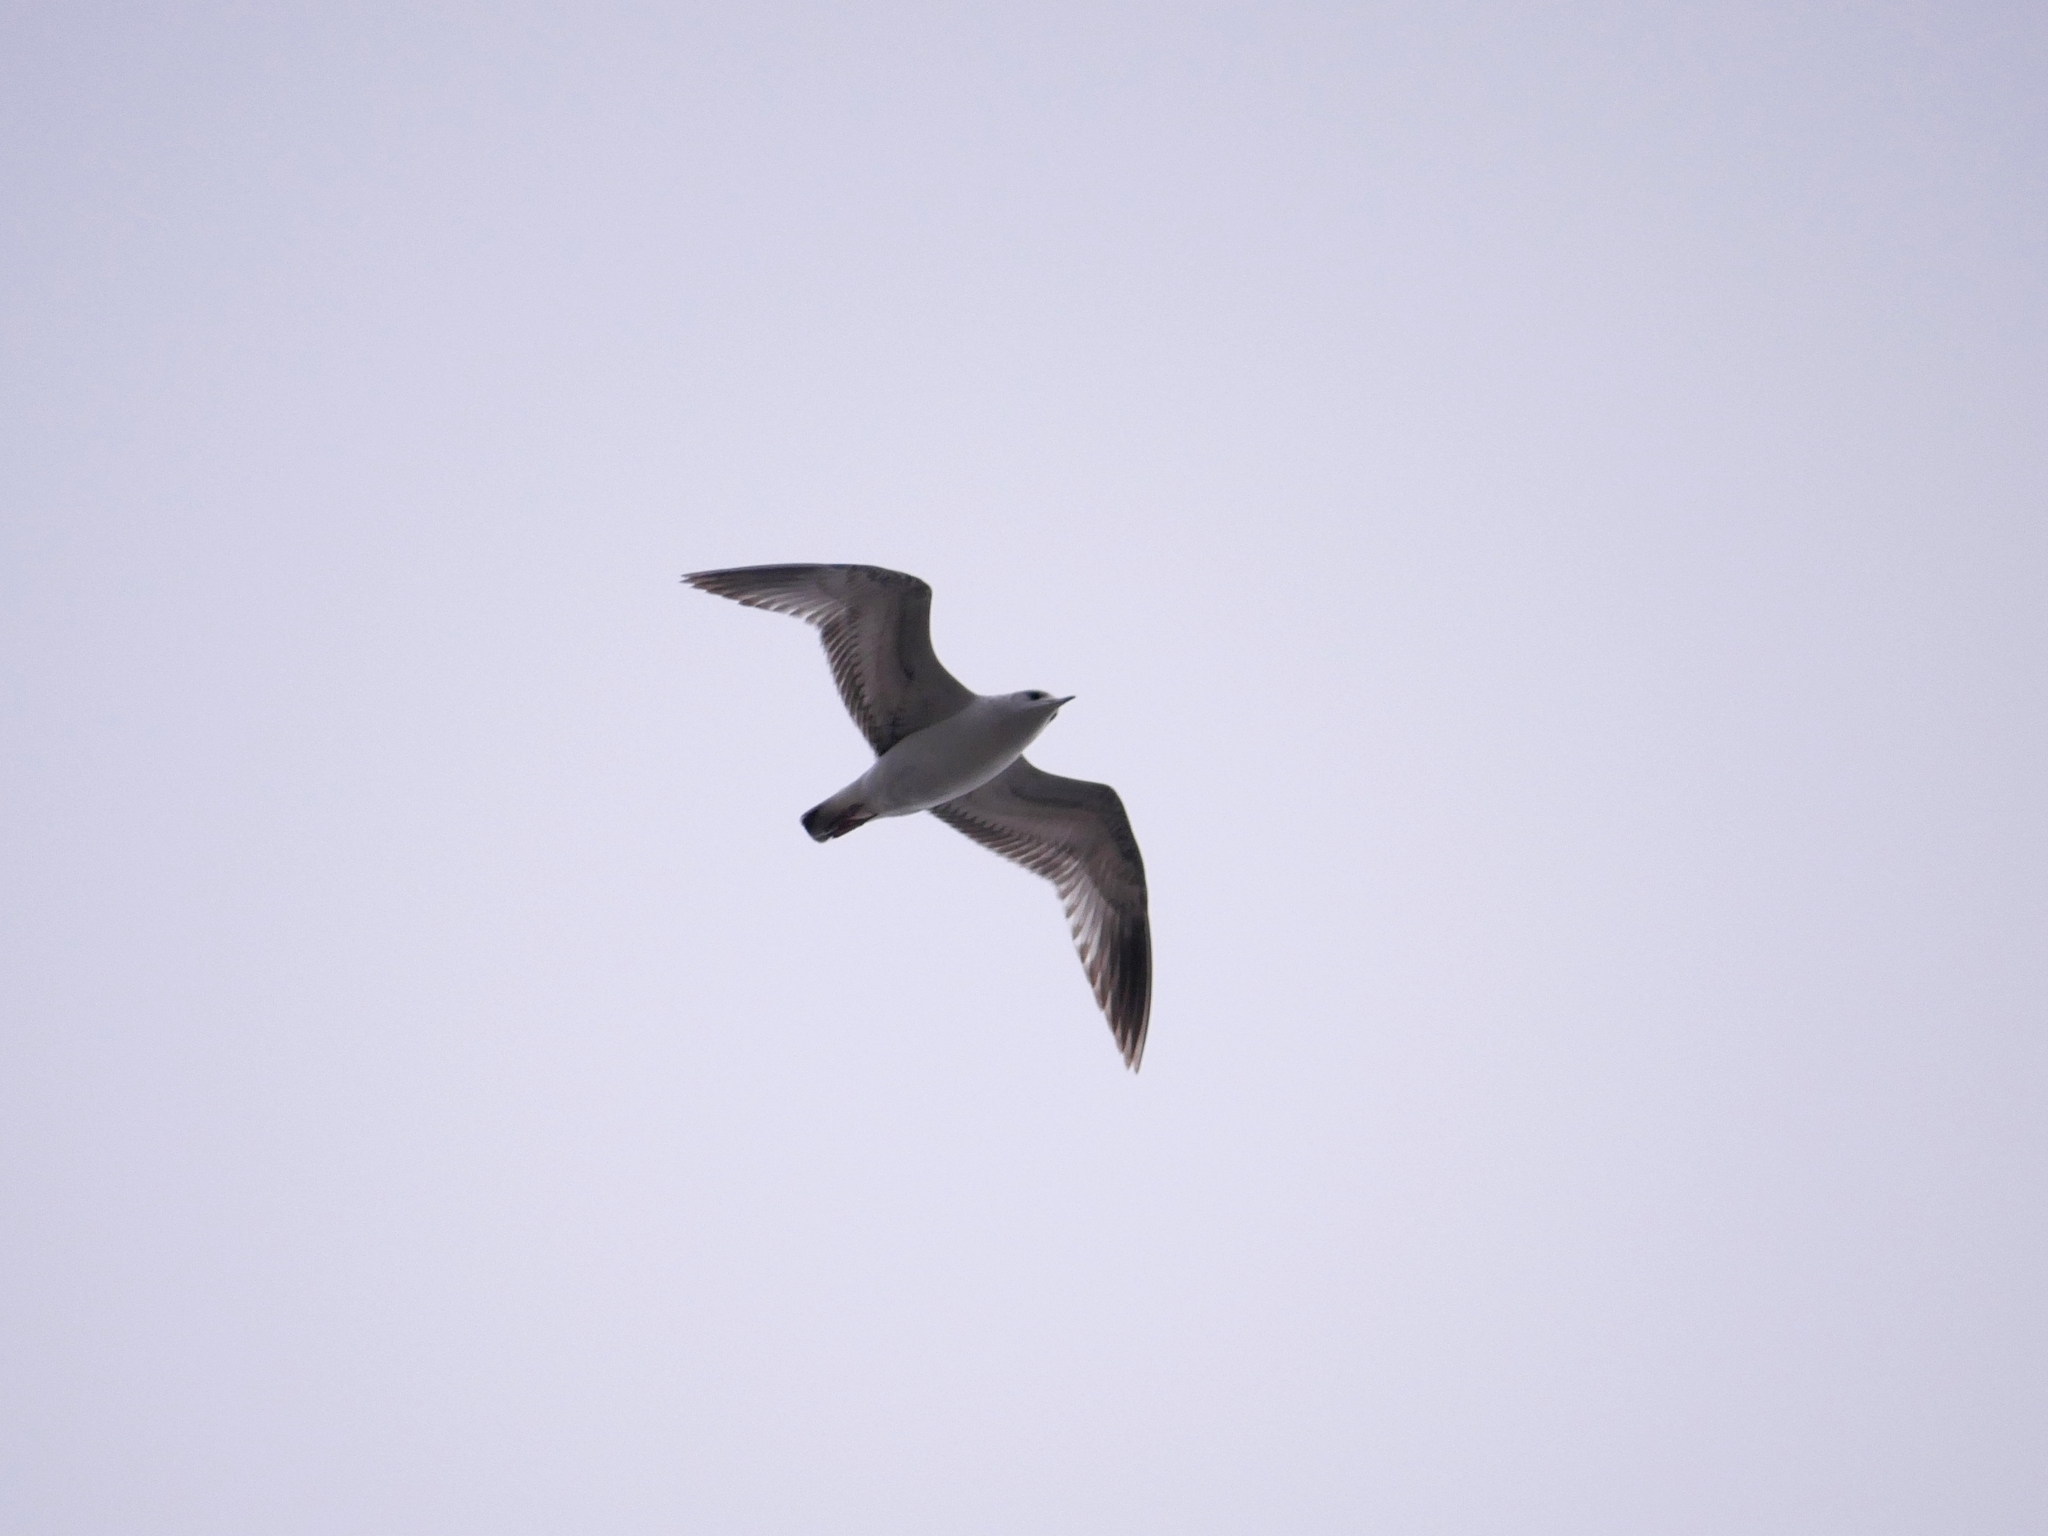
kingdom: Animalia
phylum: Chordata
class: Aves
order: Charadriiformes
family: Laridae
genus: Larus
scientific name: Larus canus
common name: Mew gull
